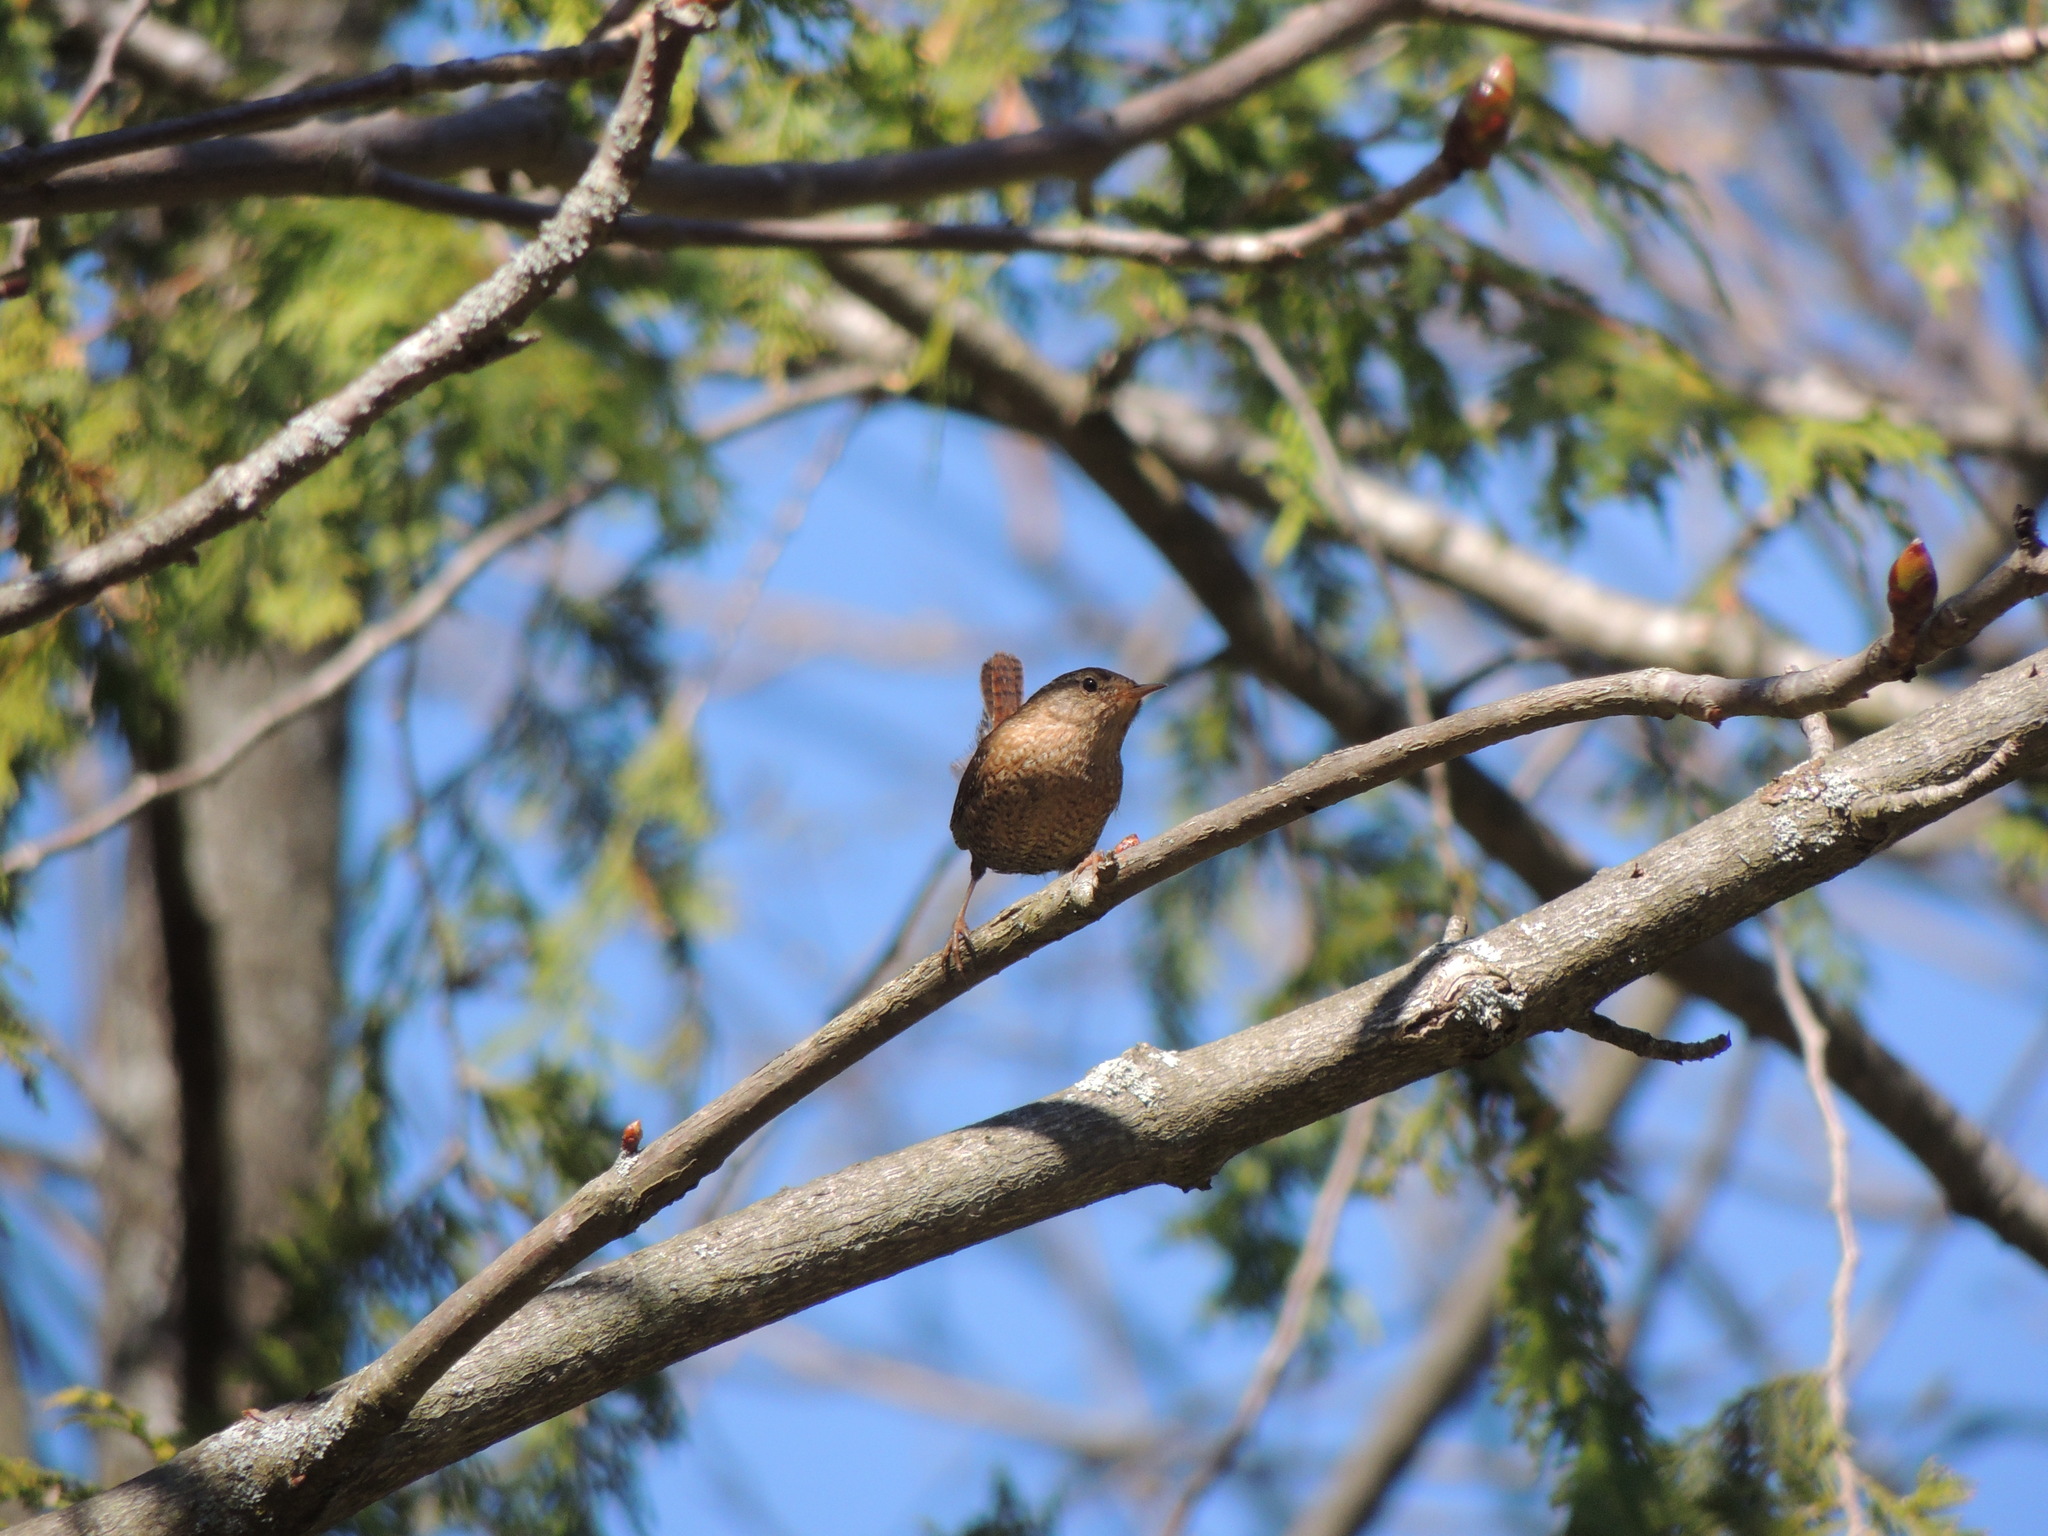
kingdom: Animalia
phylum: Chordata
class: Aves
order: Passeriformes
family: Troglodytidae
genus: Troglodytes
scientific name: Troglodytes hiemalis
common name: Winter wren
